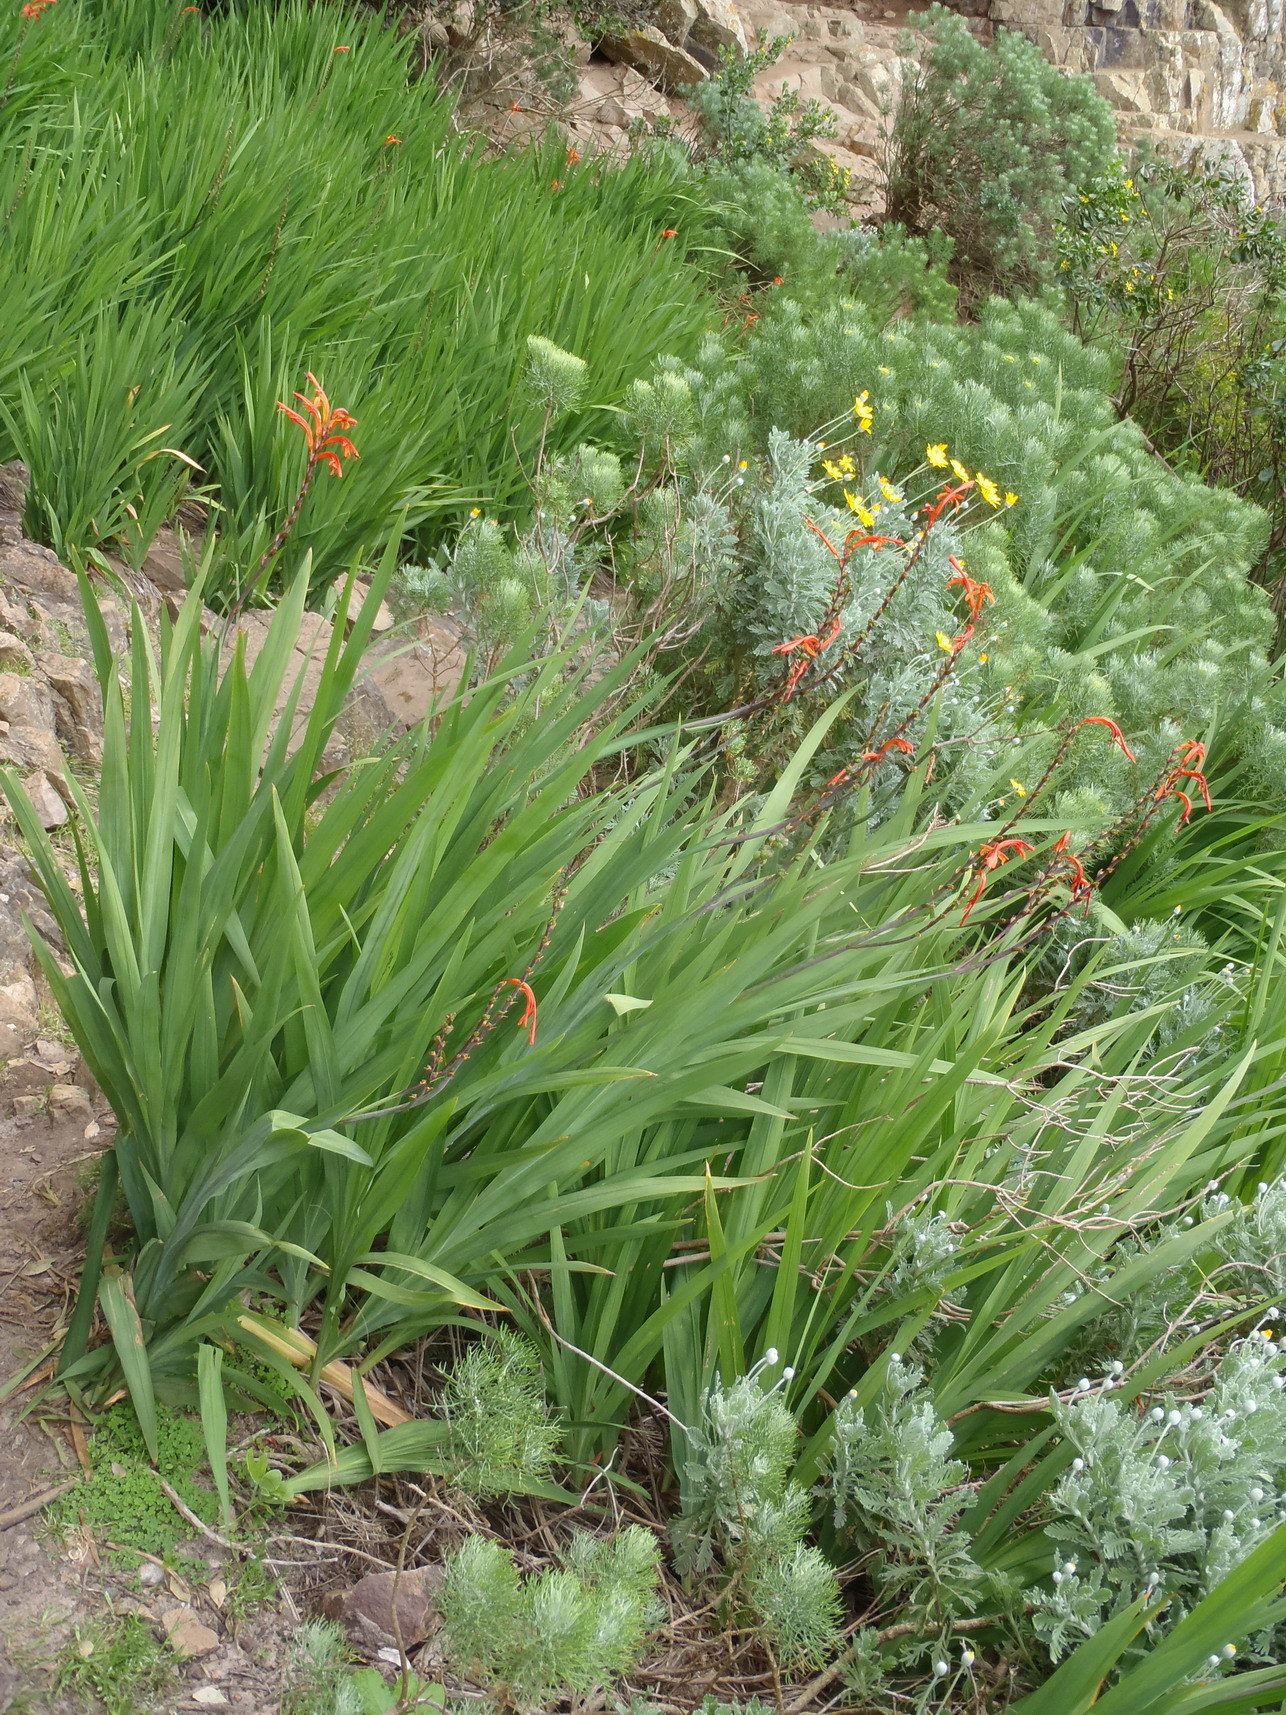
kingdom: Plantae
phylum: Tracheophyta
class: Liliopsida
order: Asparagales
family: Iridaceae
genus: Chasmanthe
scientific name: Chasmanthe floribunda
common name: African cornflag
